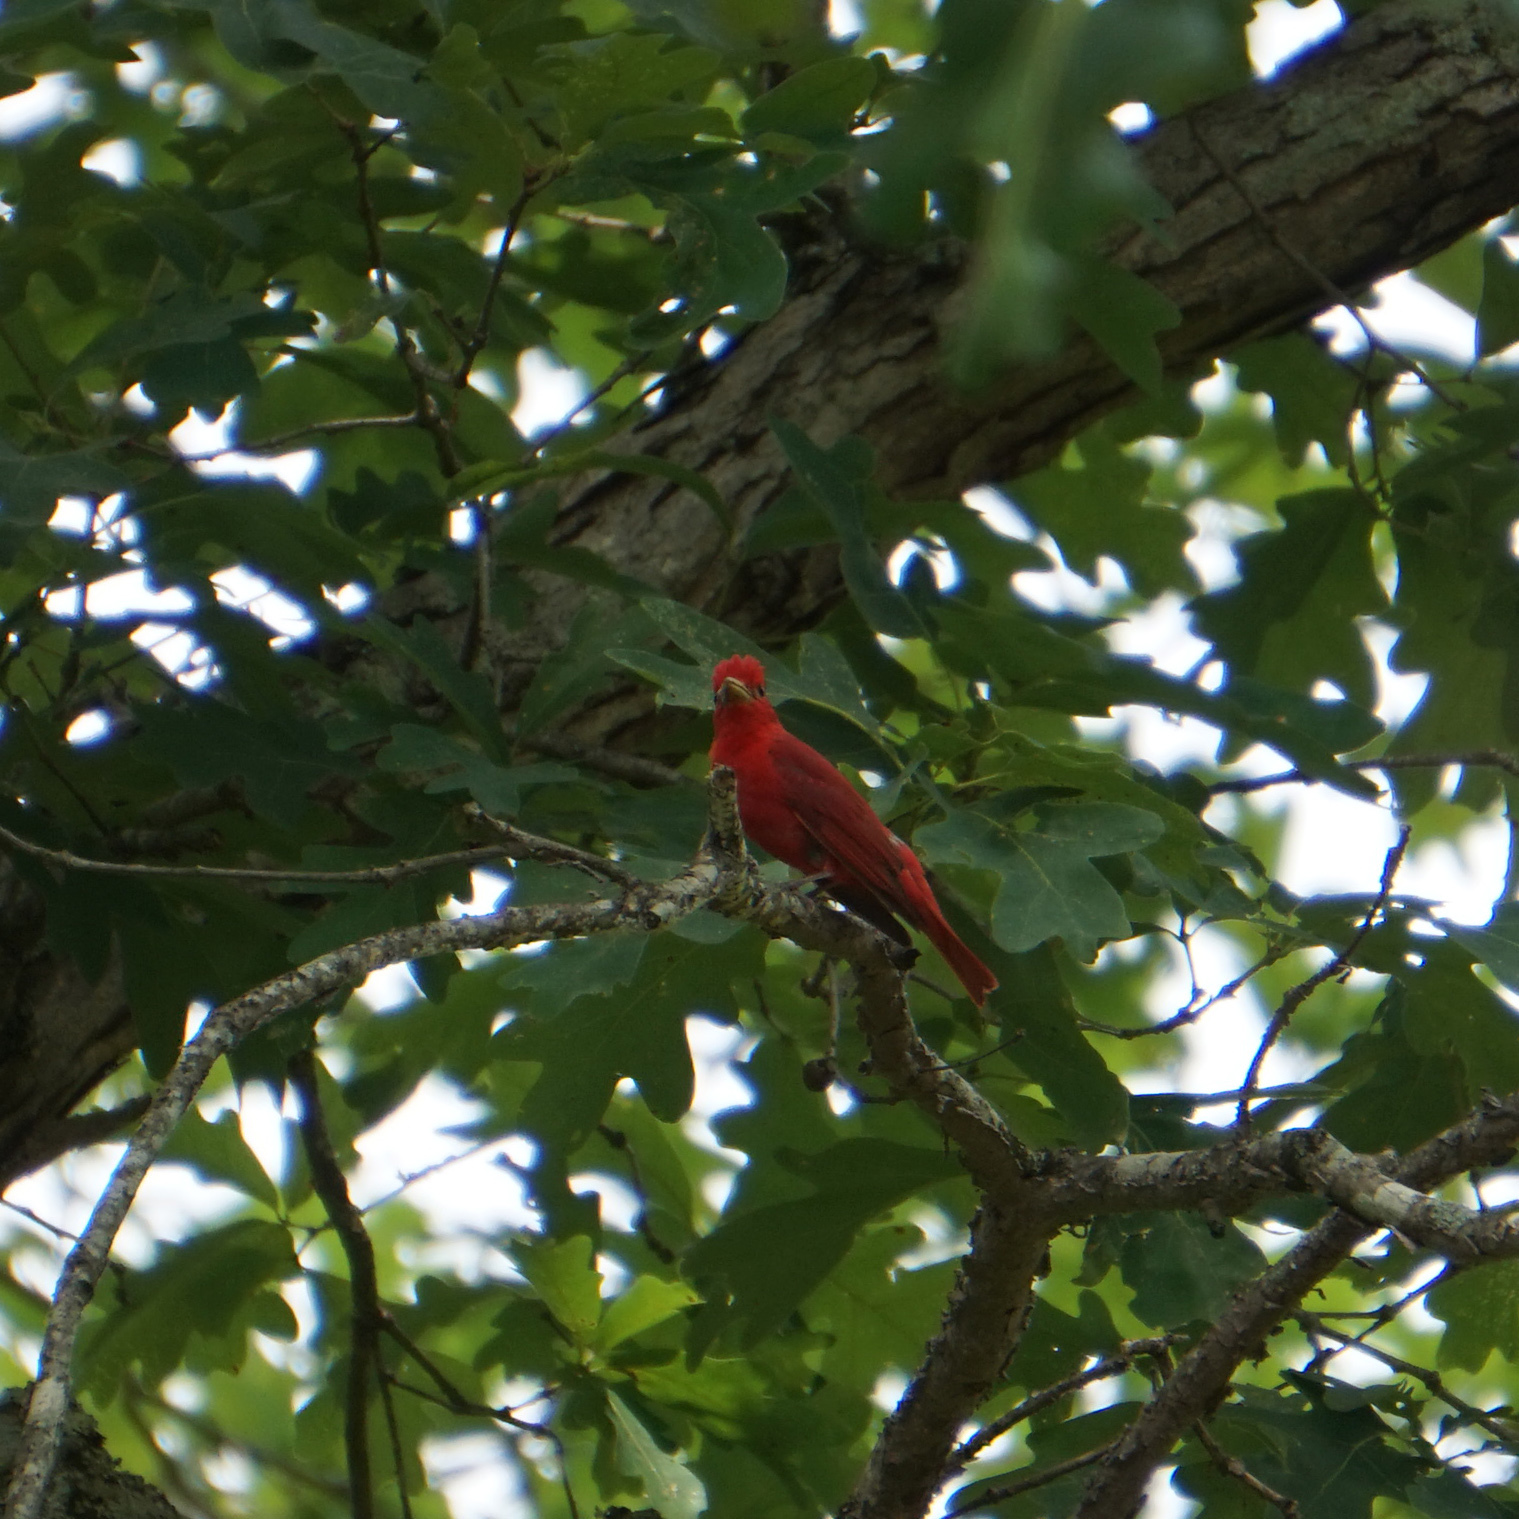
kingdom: Animalia
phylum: Chordata
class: Aves
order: Passeriformes
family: Cardinalidae
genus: Piranga
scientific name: Piranga rubra
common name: Summer tanager
